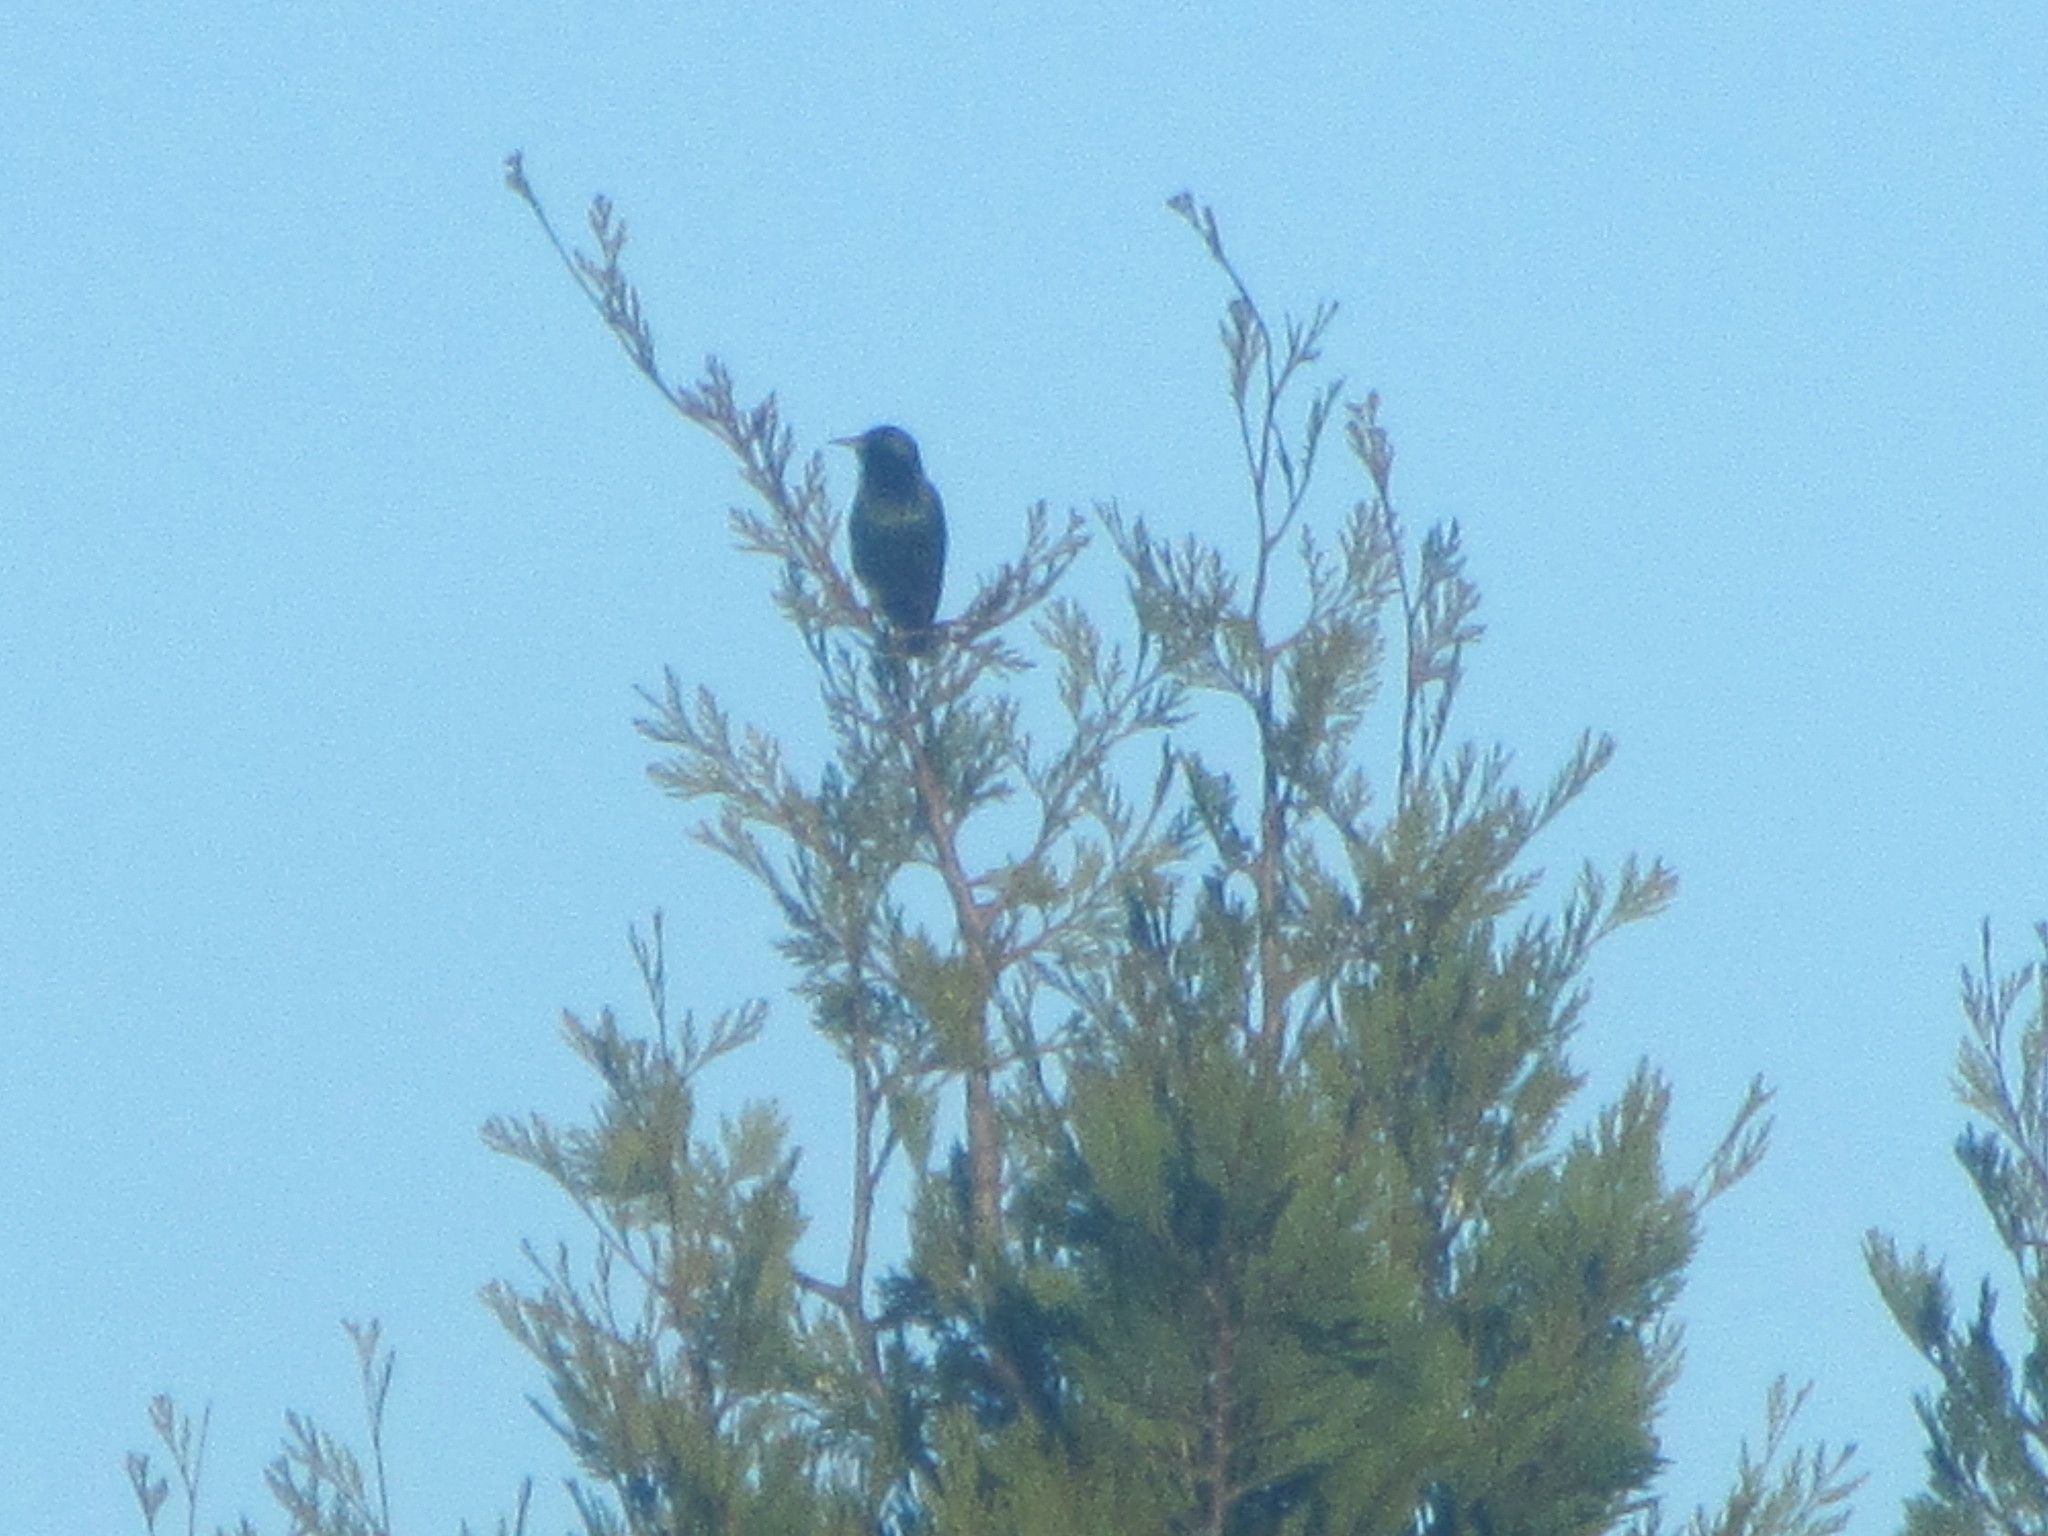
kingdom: Animalia
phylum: Chordata
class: Aves
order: Passeriformes
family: Sturnidae
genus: Sturnus
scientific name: Sturnus vulgaris
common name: Common starling
